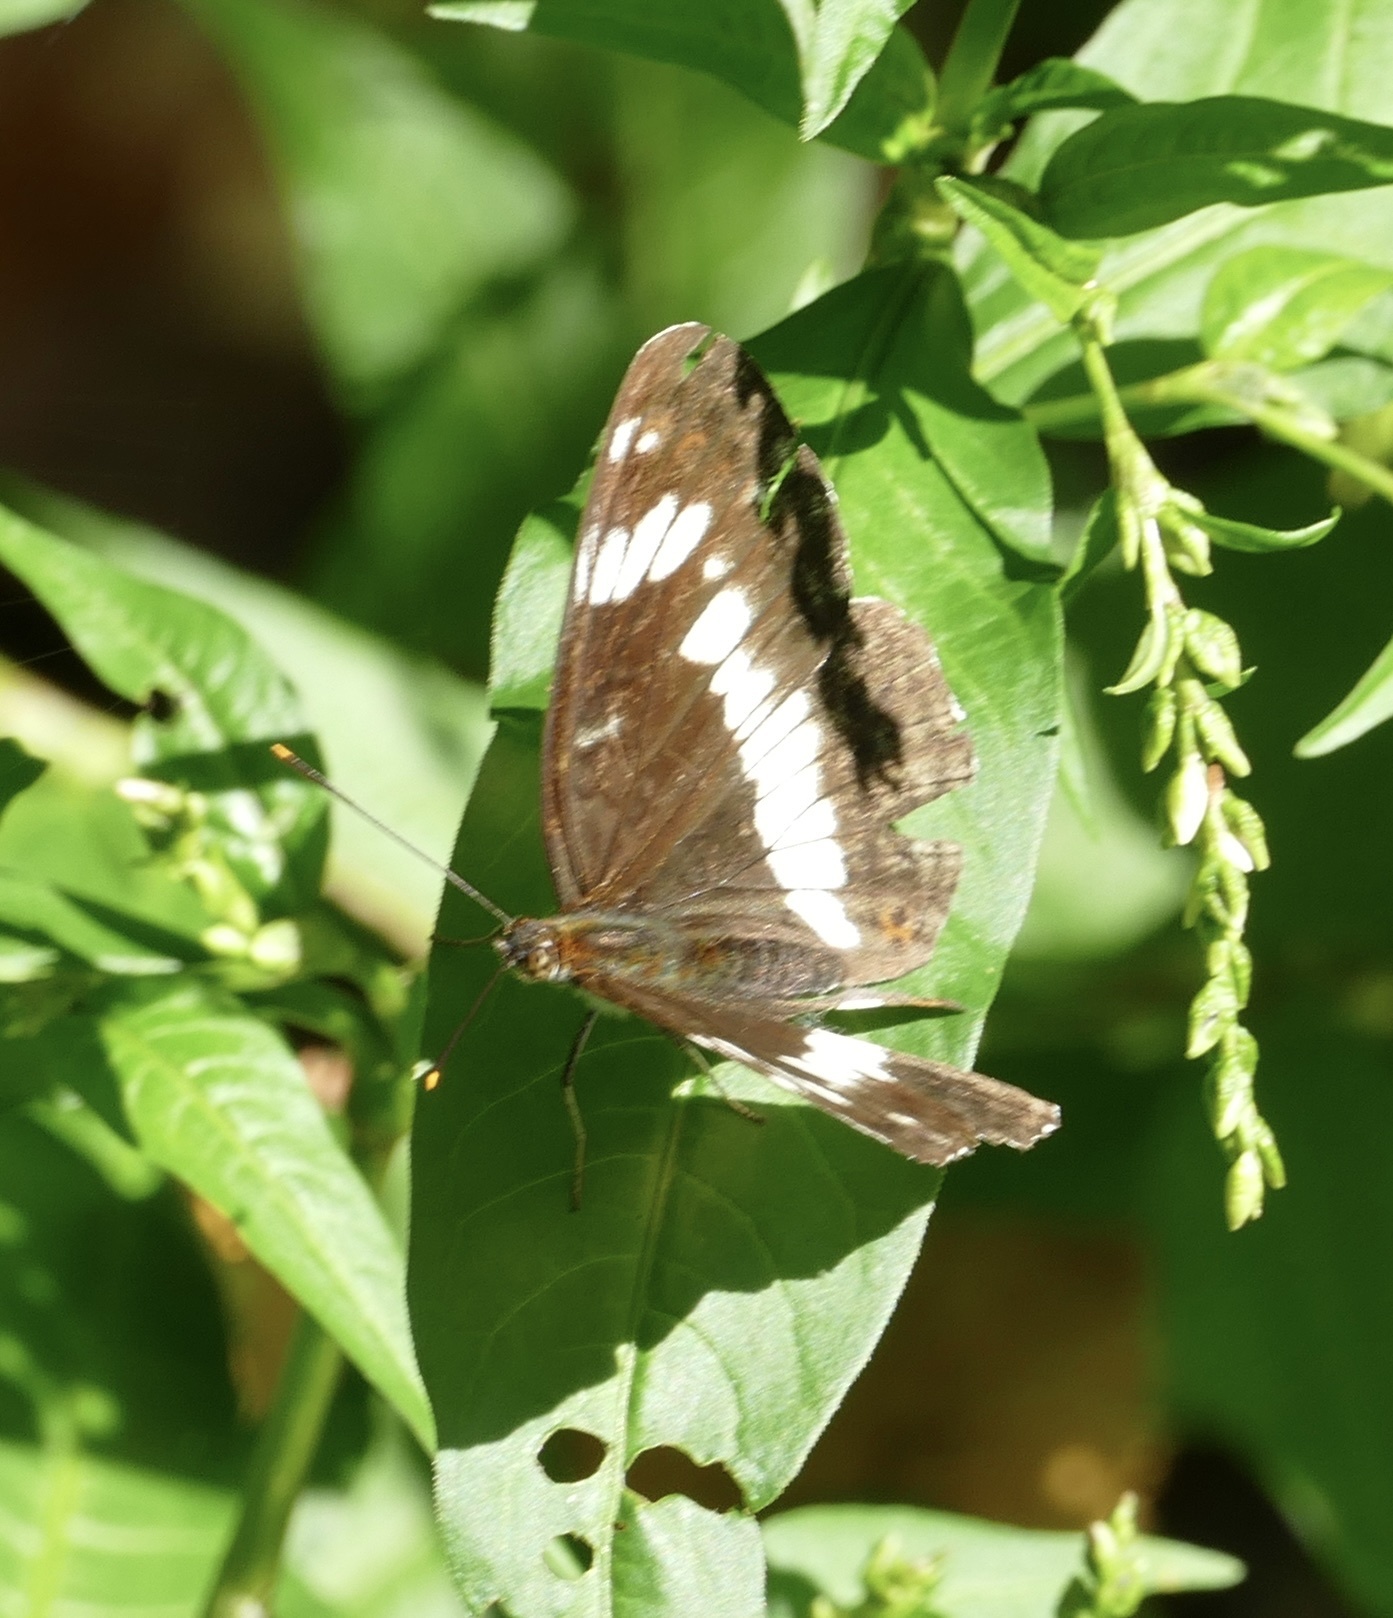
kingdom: Animalia
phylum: Arthropoda
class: Insecta
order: Lepidoptera
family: Nymphalidae
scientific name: Nymphalidae
